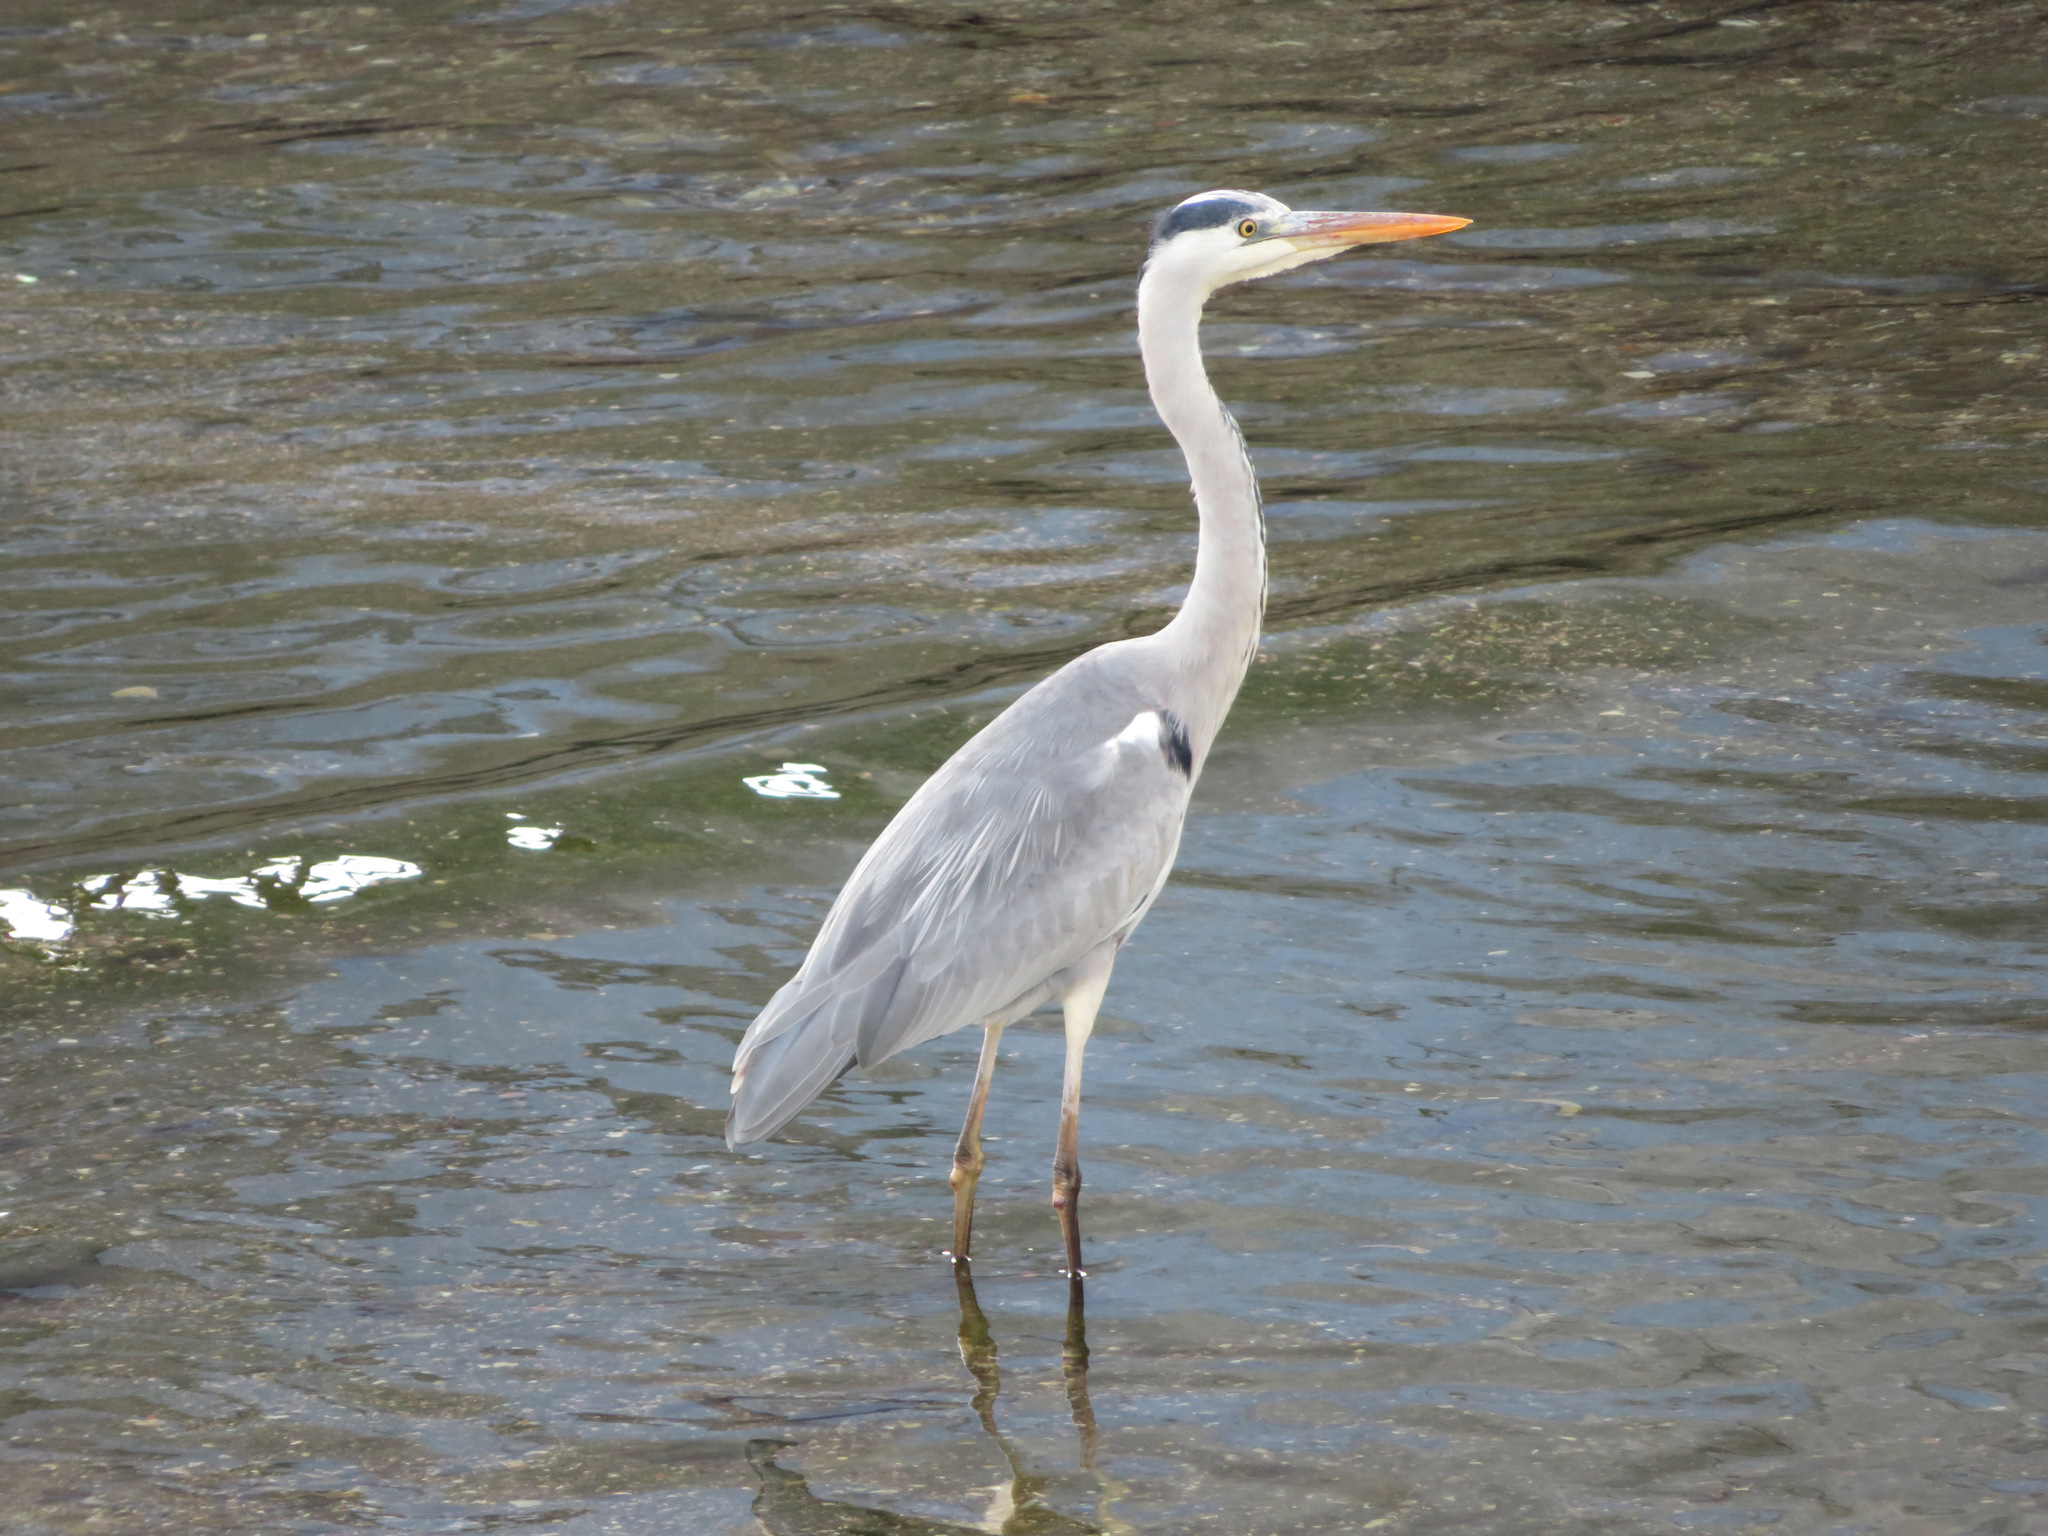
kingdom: Animalia
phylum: Chordata
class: Aves
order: Pelecaniformes
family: Ardeidae
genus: Ardea
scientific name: Ardea cinerea
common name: Grey heron
